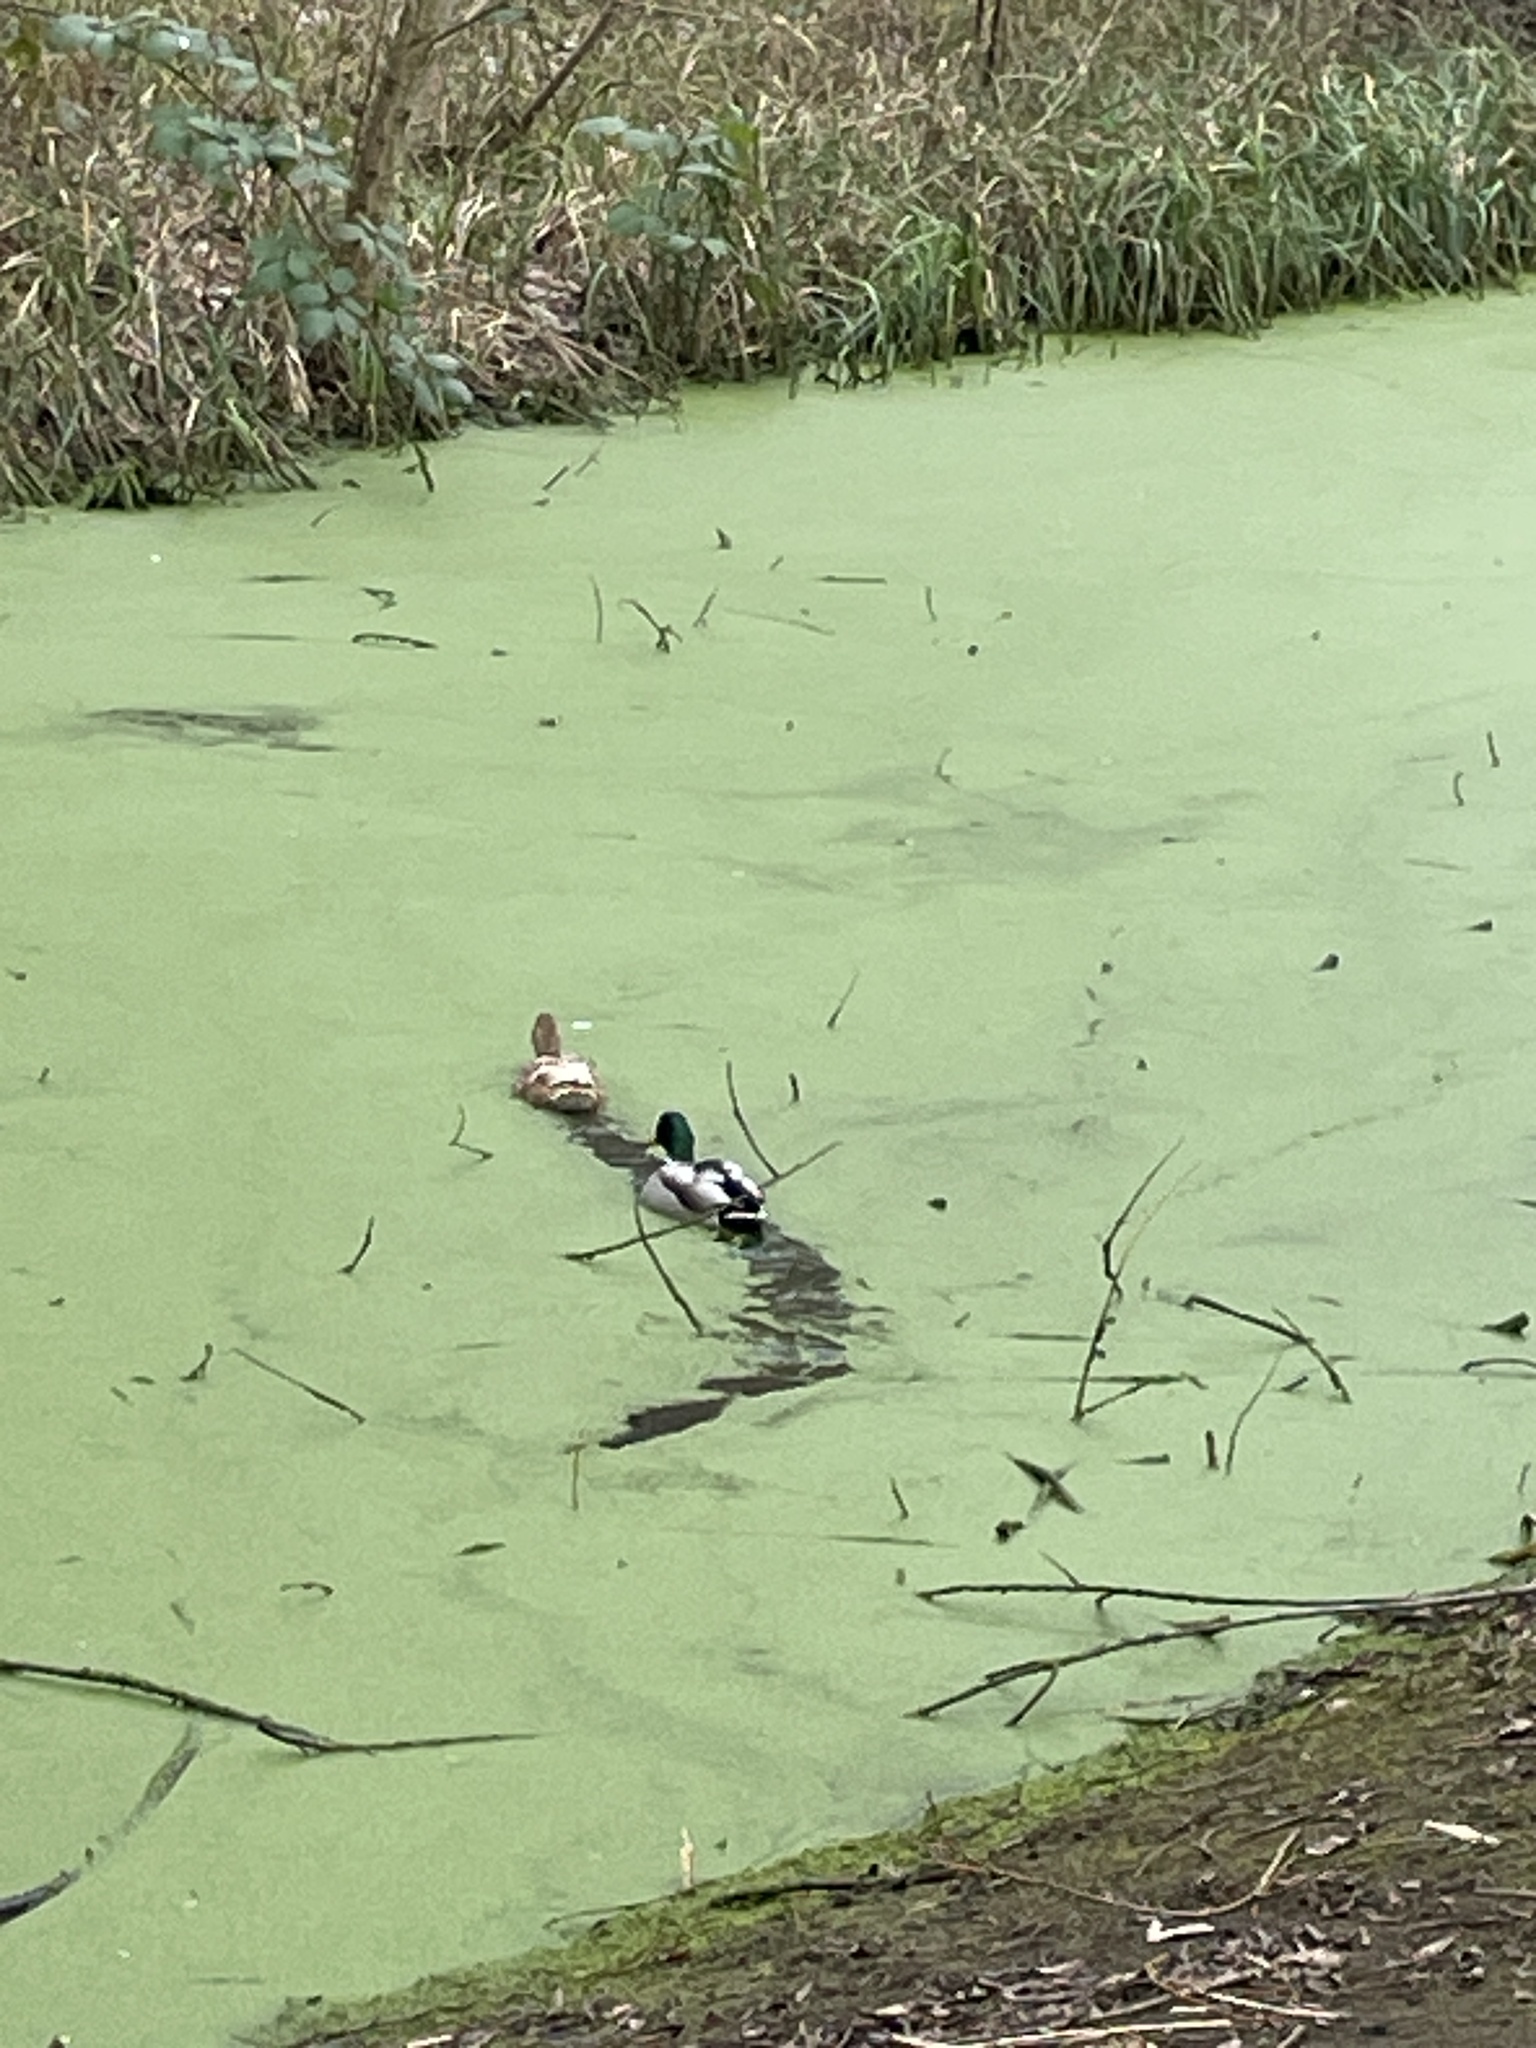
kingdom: Animalia
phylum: Chordata
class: Aves
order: Anseriformes
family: Anatidae
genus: Anas
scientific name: Anas platyrhynchos
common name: Mallard
